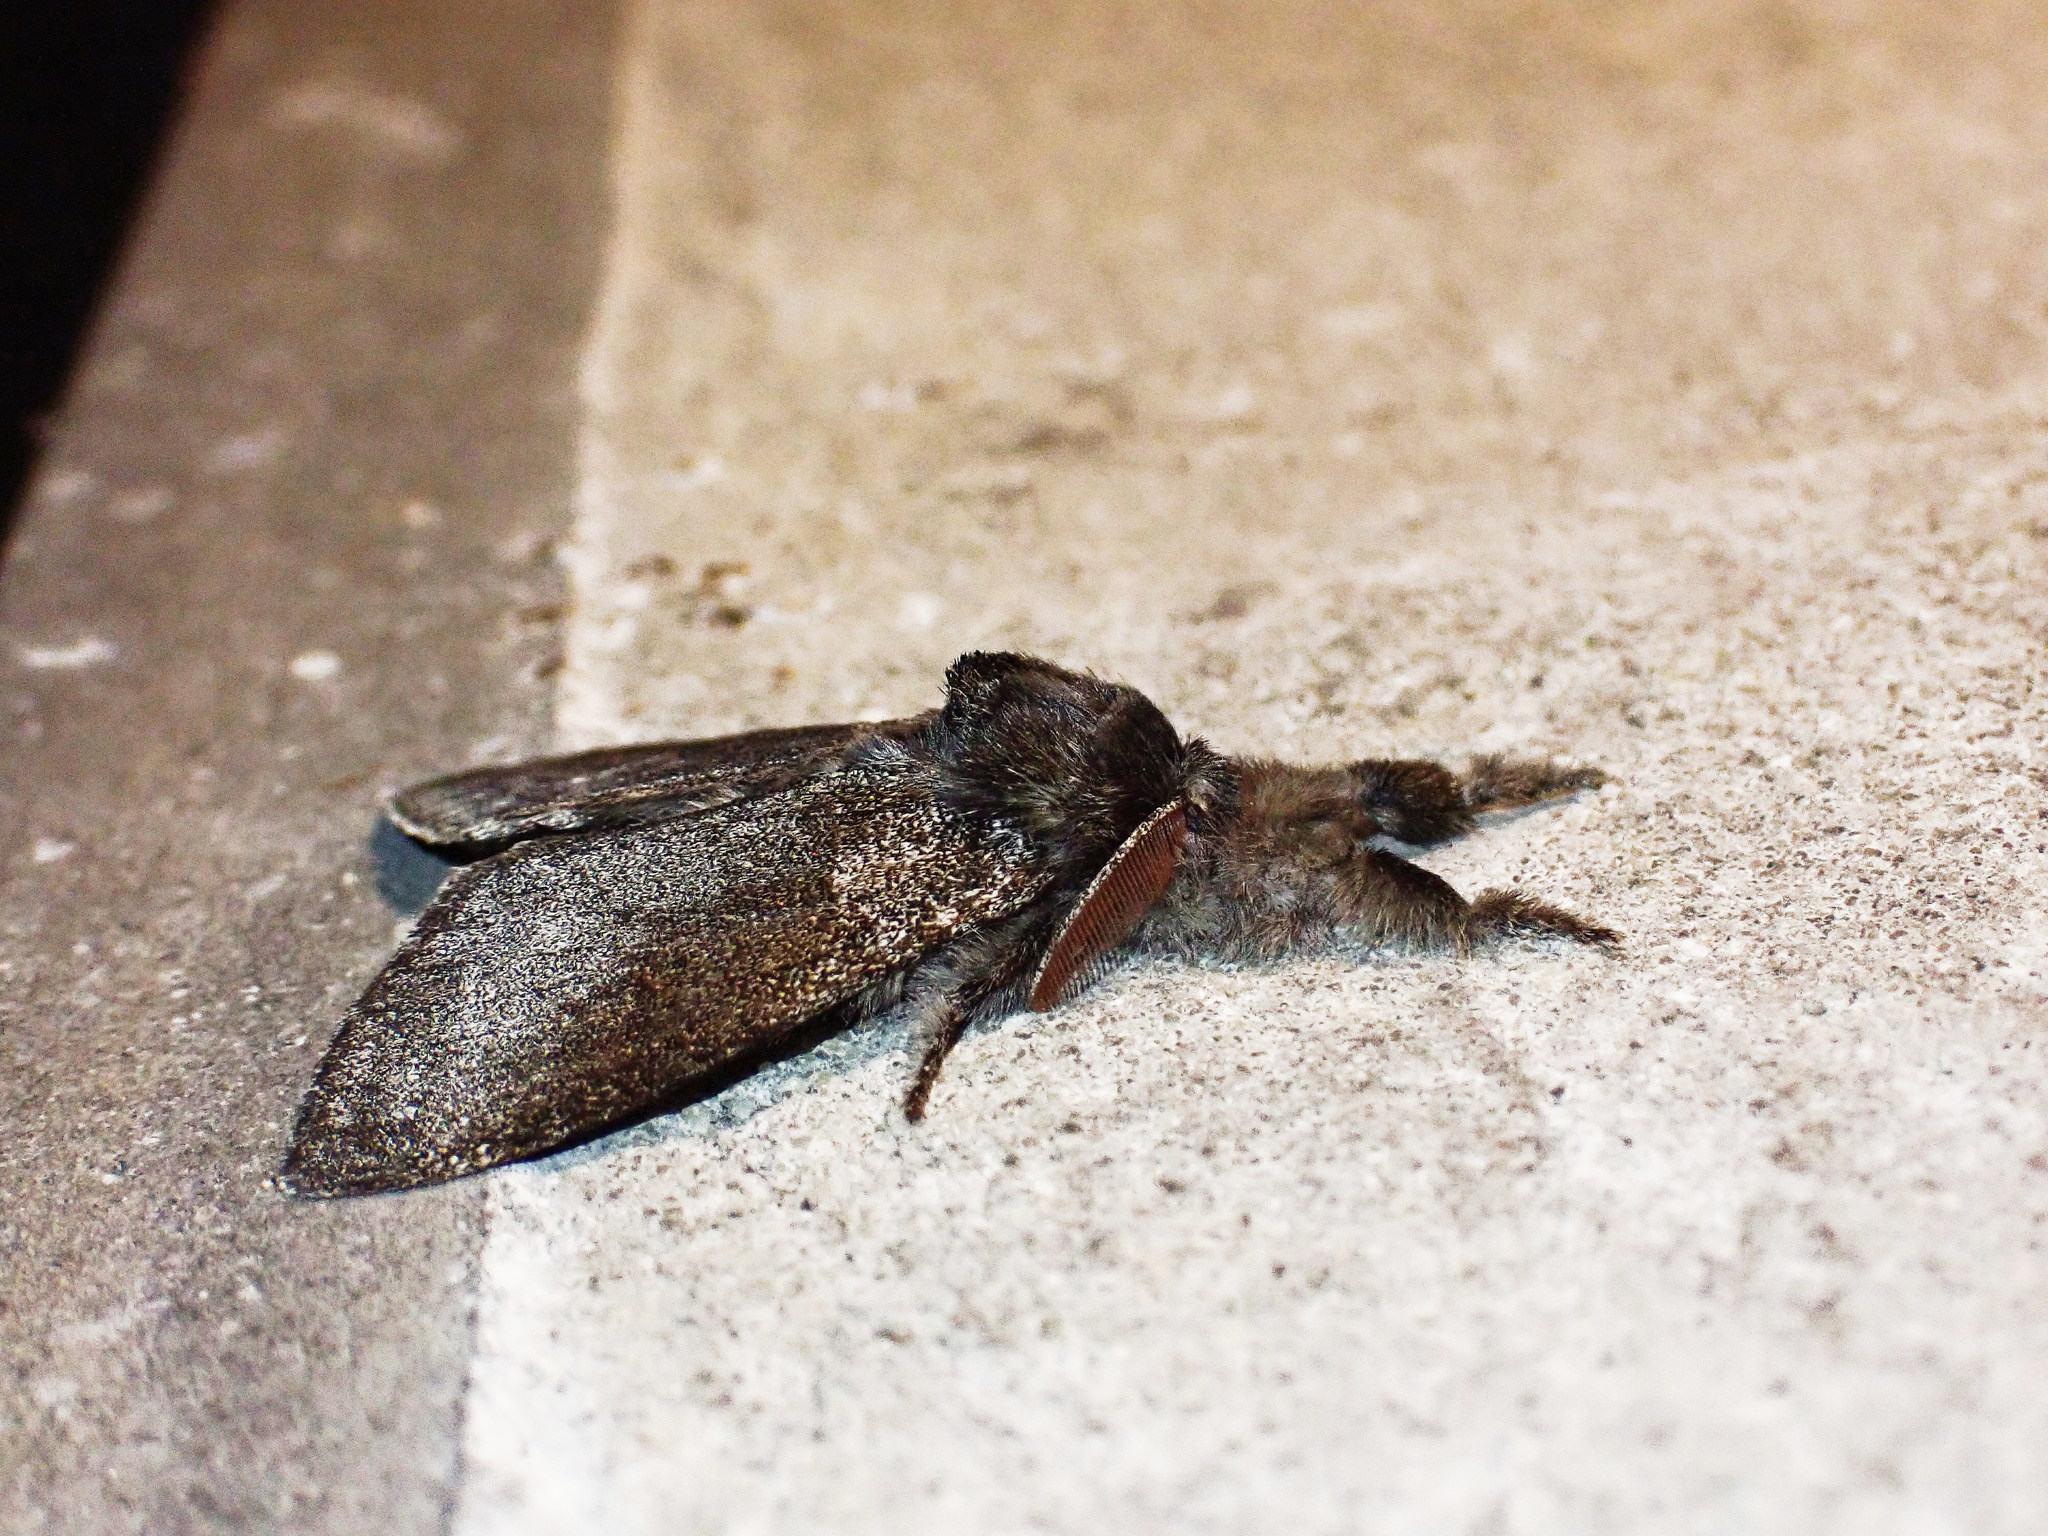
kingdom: Animalia
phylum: Arthropoda
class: Insecta
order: Lepidoptera
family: Erebidae
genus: Calliteara
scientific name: Calliteara pudibunda
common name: Pale tussock
